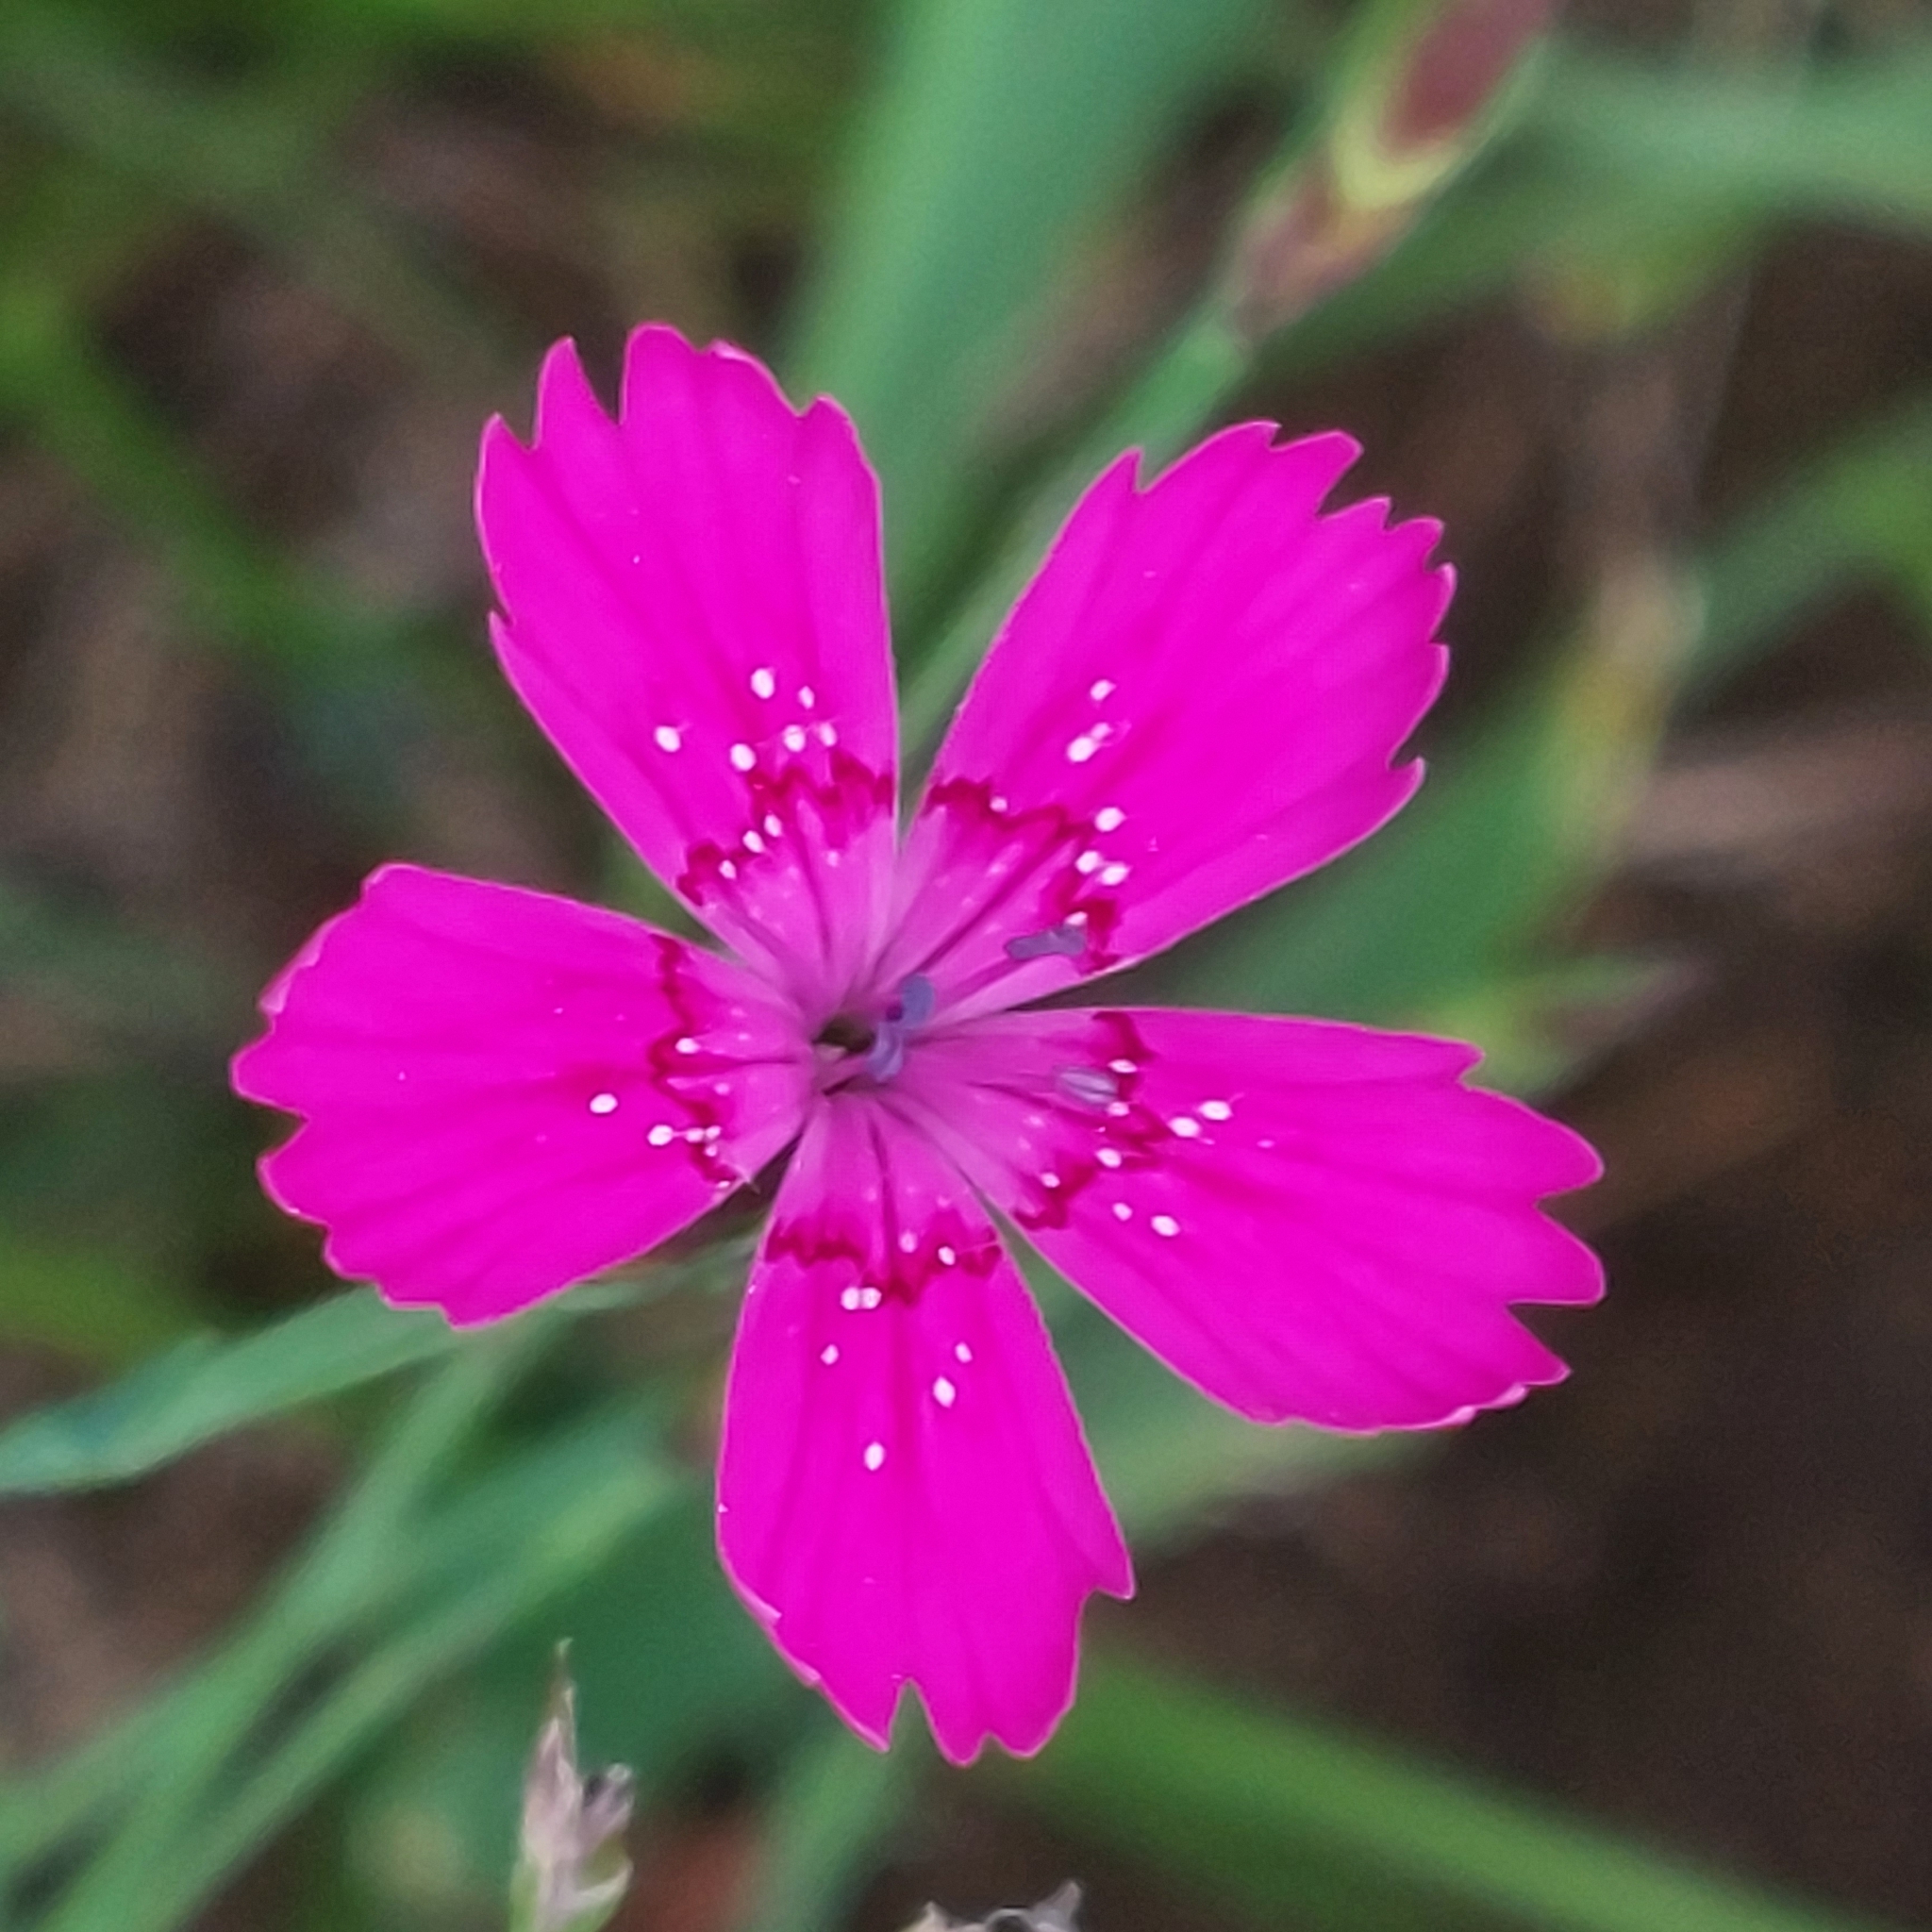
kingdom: Plantae
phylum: Tracheophyta
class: Magnoliopsida
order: Caryophyllales
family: Caryophyllaceae
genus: Dianthus
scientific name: Dianthus deltoides
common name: Maiden pink
